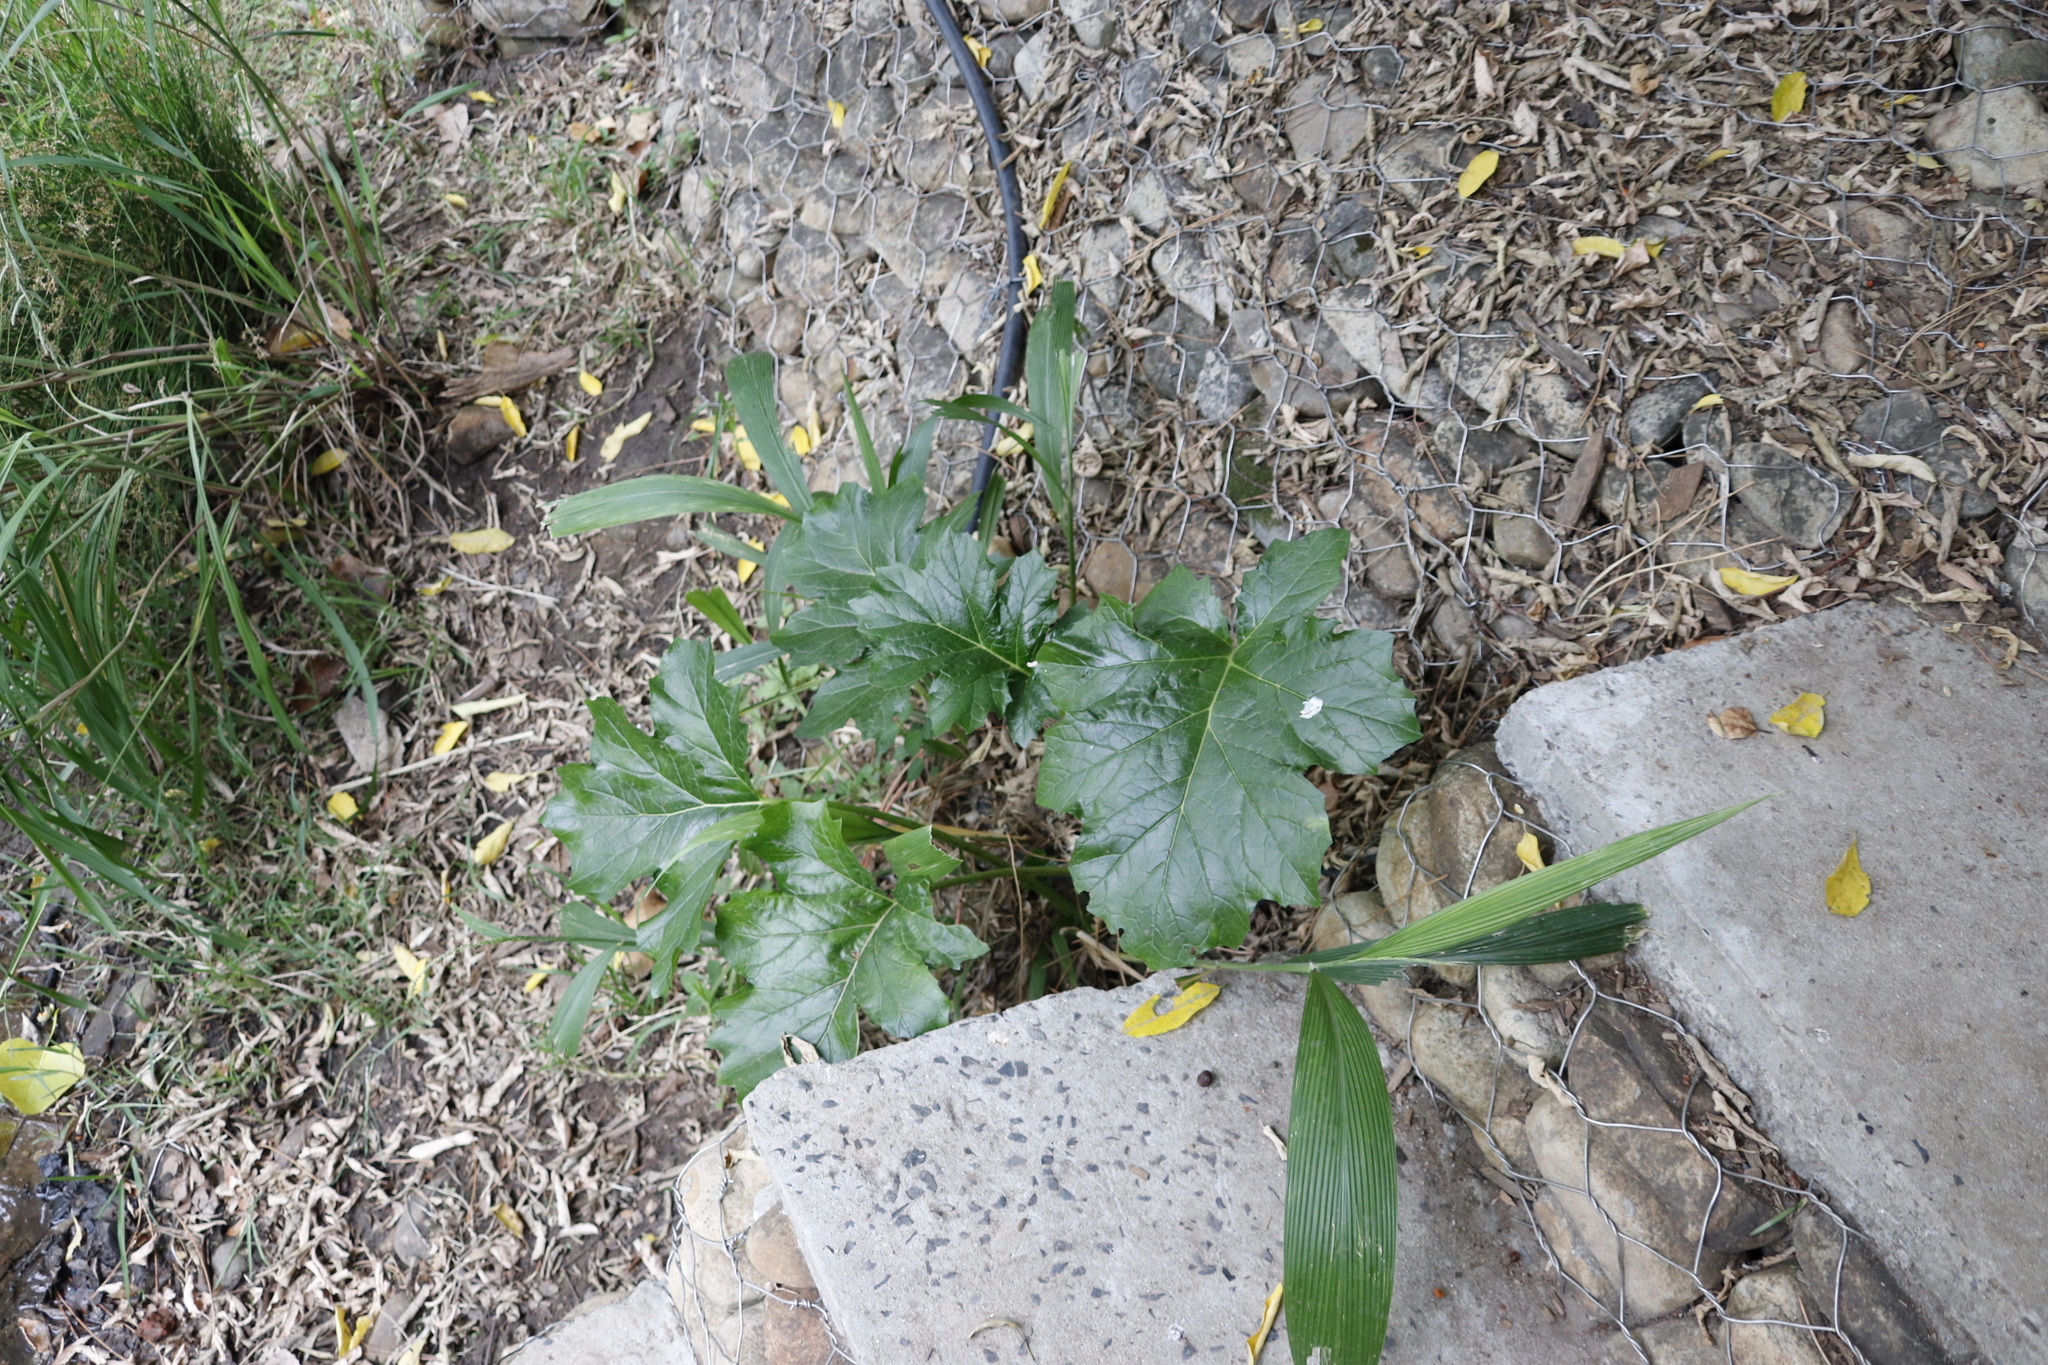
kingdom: Plantae
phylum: Tracheophyta
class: Magnoliopsida
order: Lamiales
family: Acanthaceae
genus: Acanthus
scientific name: Acanthus mollis
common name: Bear's-breech
